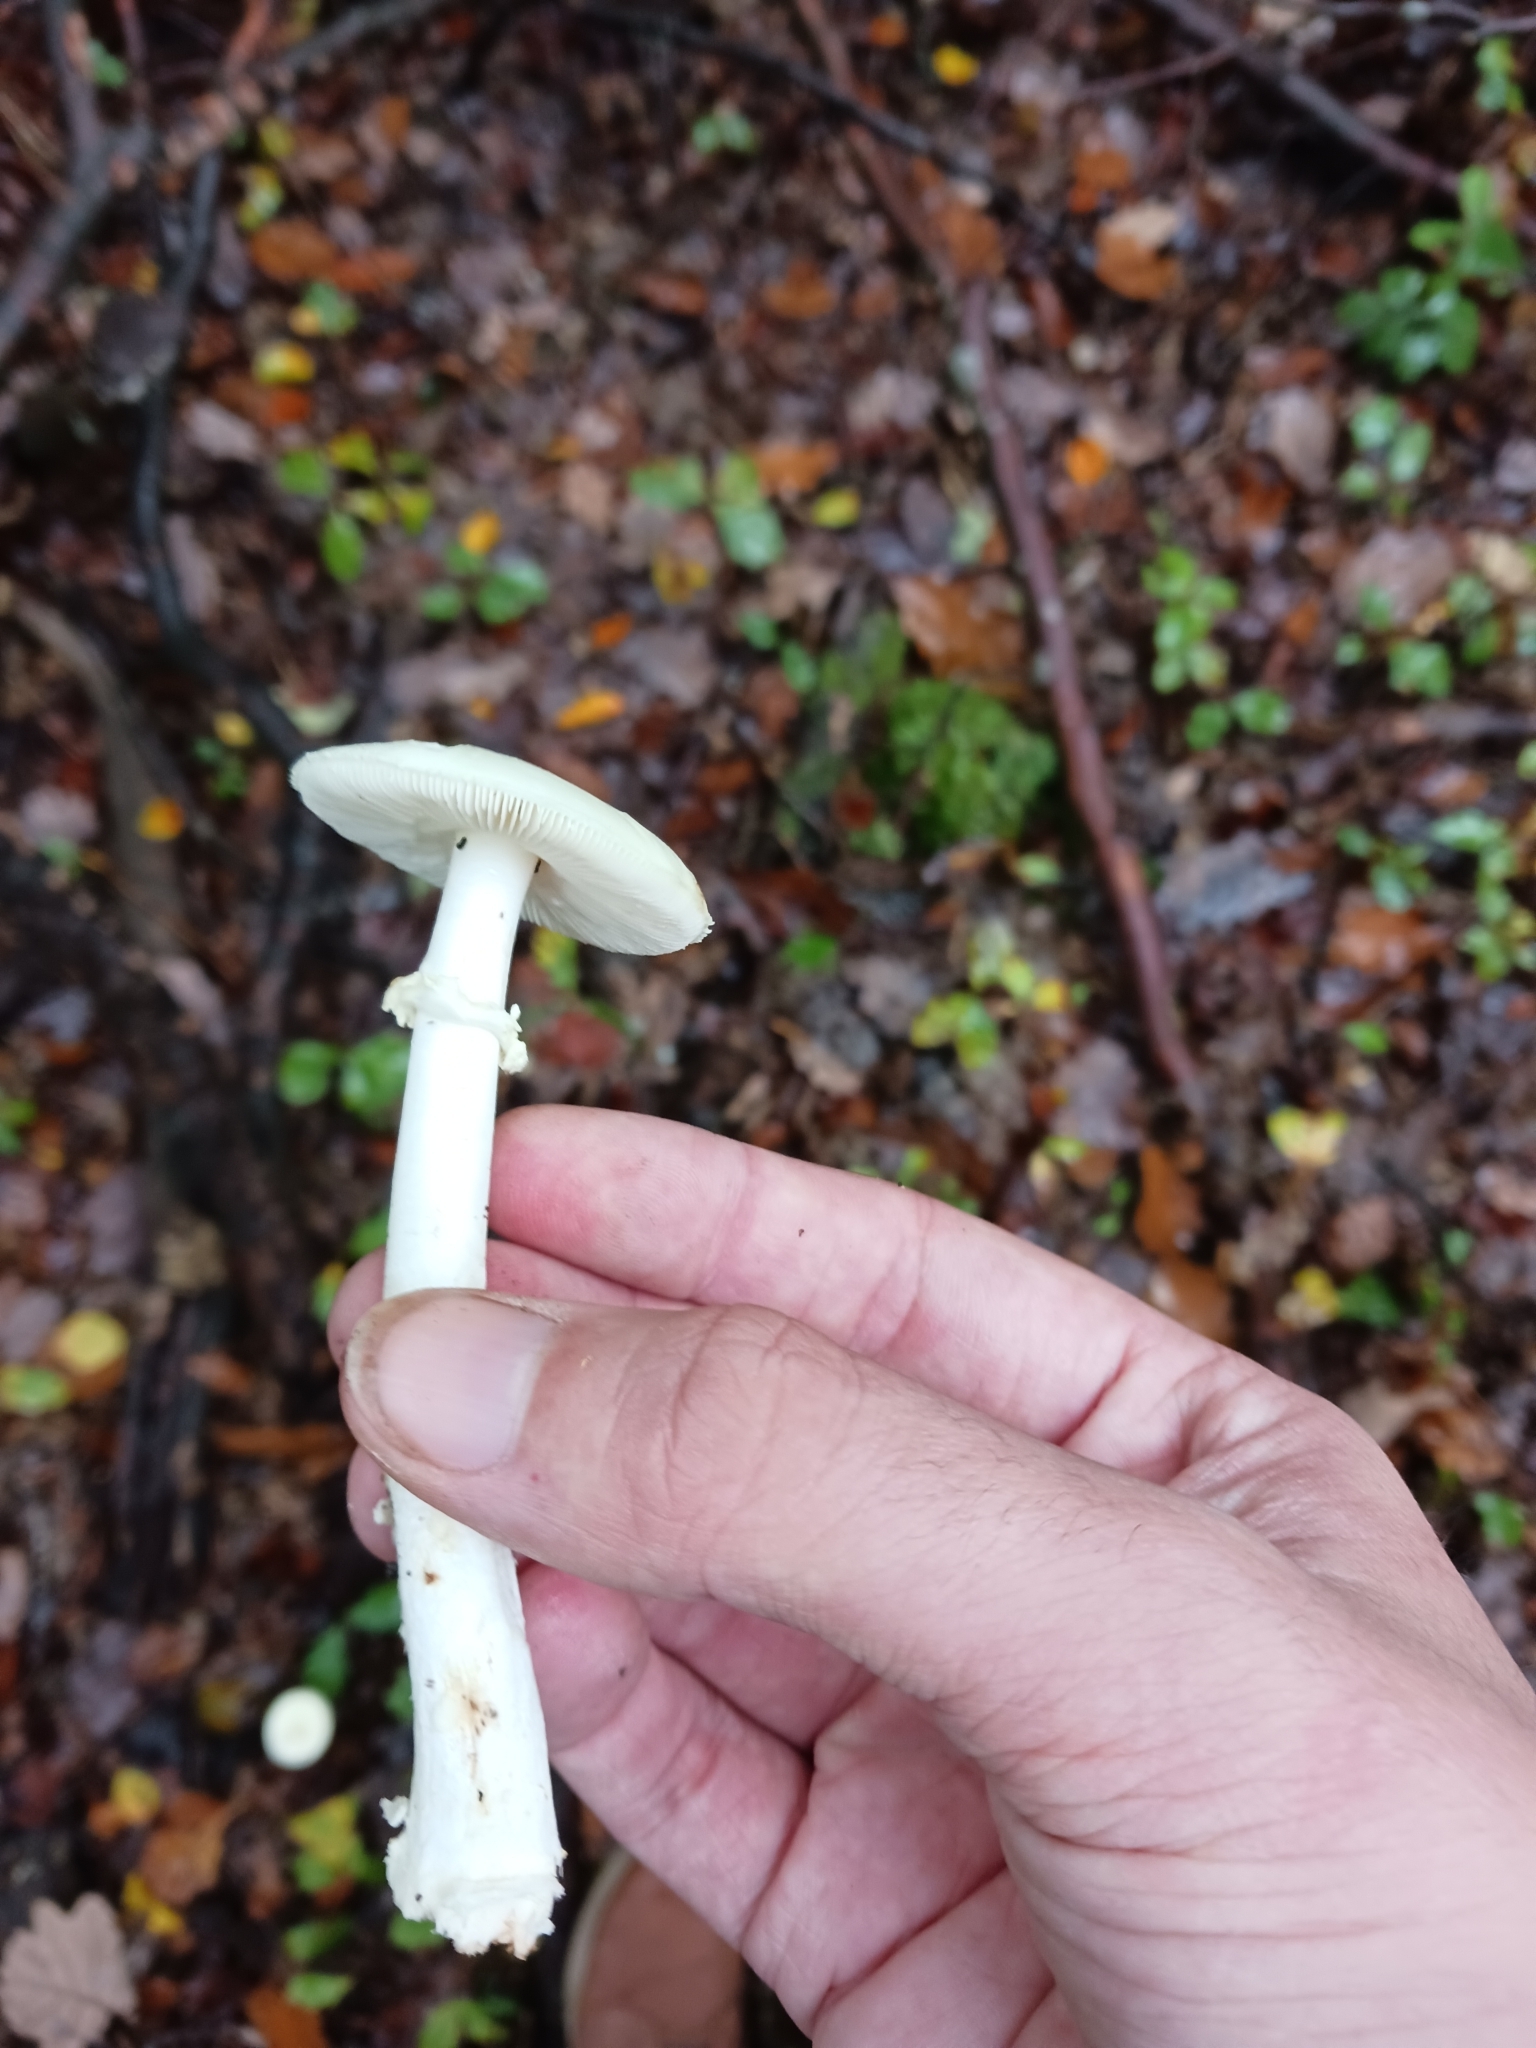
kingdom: Fungi
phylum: Basidiomycota
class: Agaricomycetes
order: Agaricales
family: Amanitaceae
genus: Amanita
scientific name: Amanita citrina
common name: False death-cap
